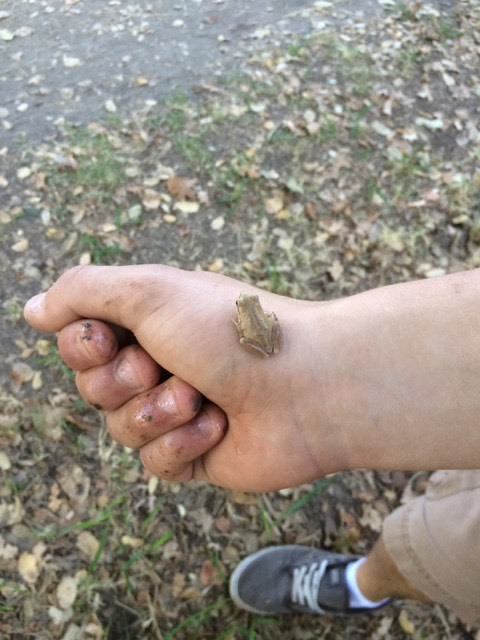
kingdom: Animalia
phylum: Chordata
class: Amphibia
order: Anura
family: Hylidae
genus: Pseudacris
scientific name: Pseudacris regilla
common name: Pacific chorus frog
